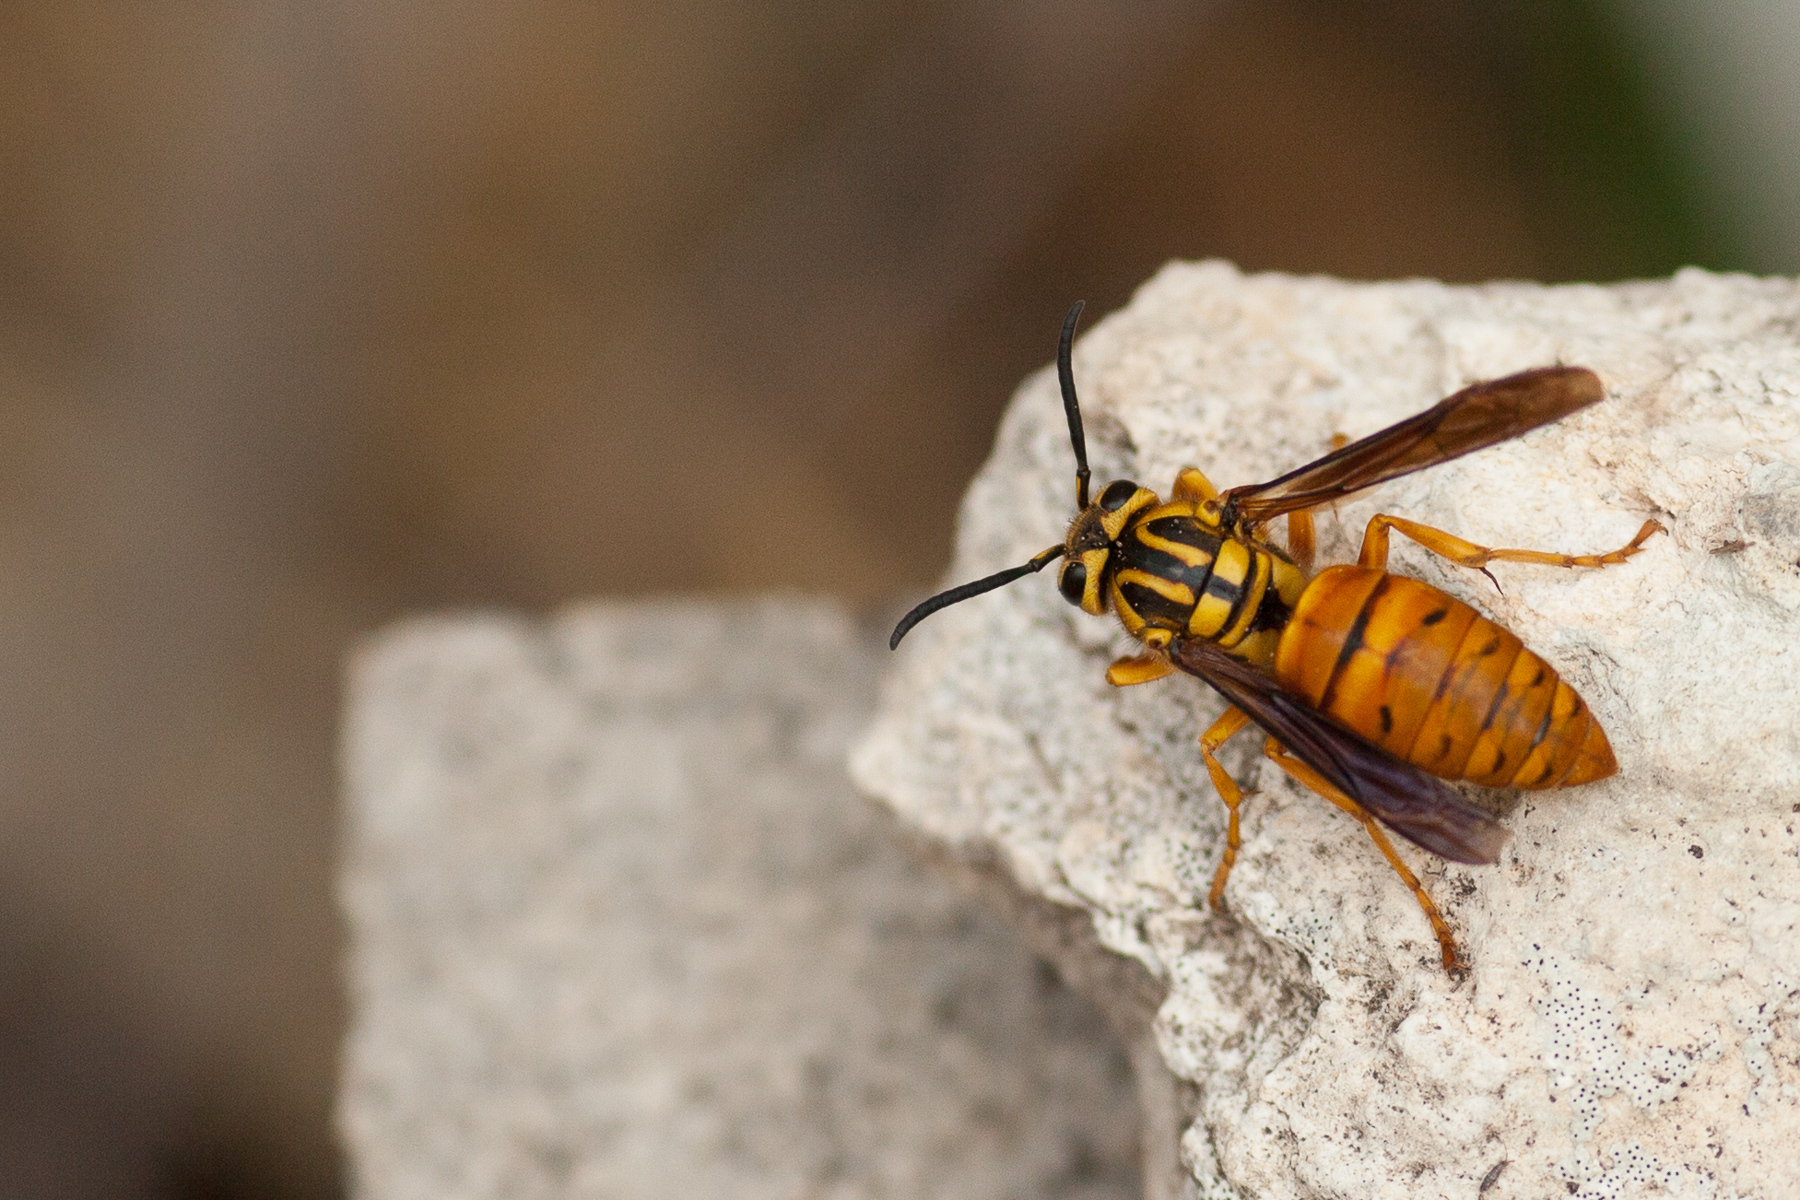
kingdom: Animalia
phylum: Arthropoda
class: Insecta
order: Hymenoptera
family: Vespidae
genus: Vespula
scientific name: Vespula squamosa
